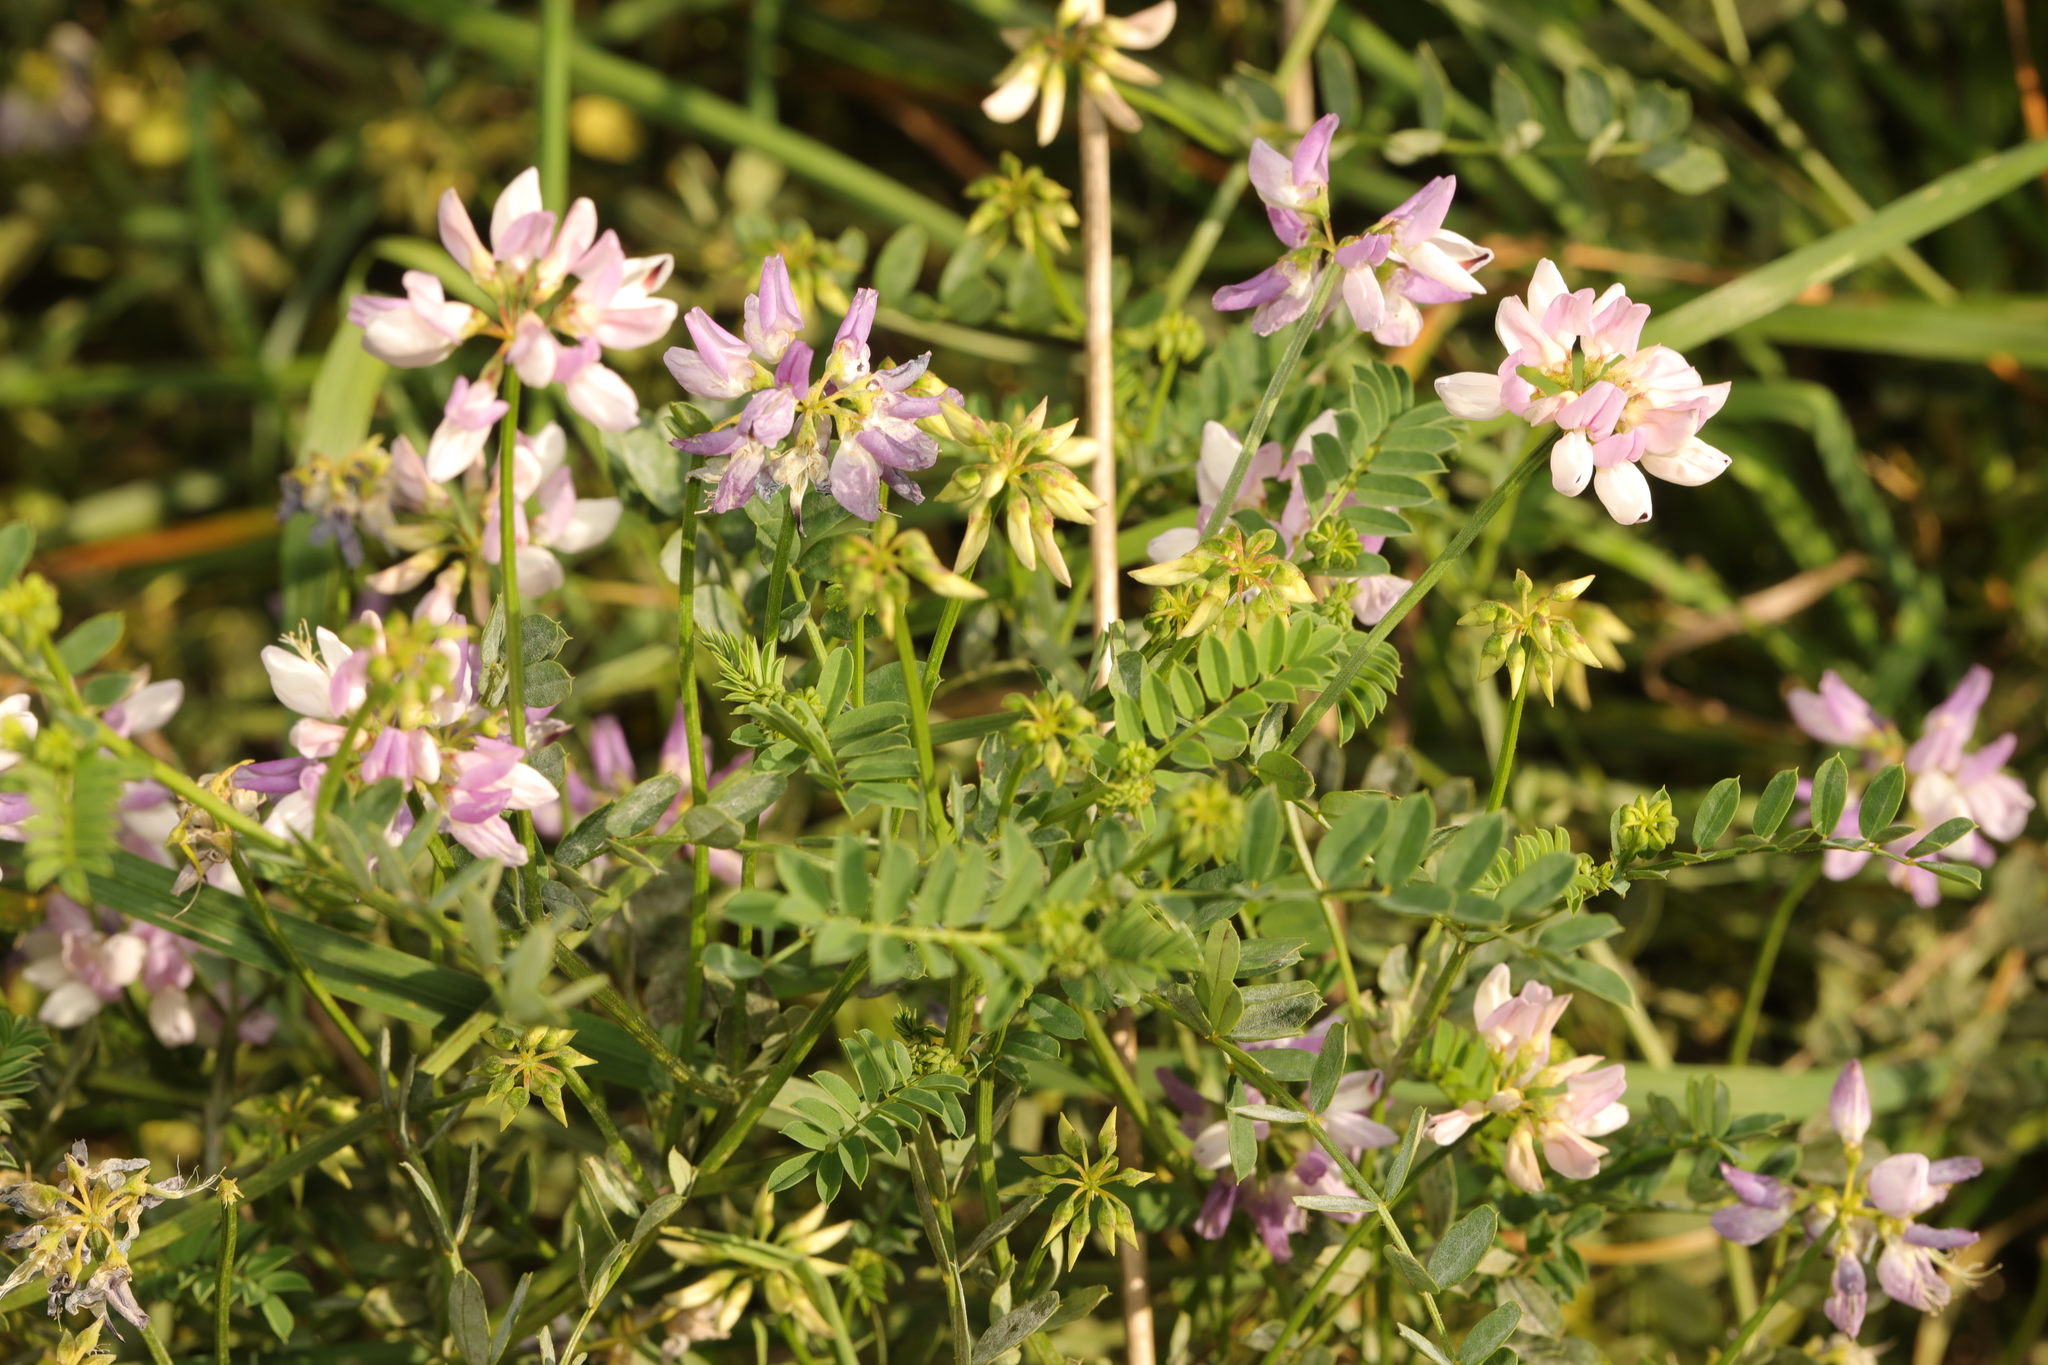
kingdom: Plantae
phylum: Tracheophyta
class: Magnoliopsida
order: Fabales
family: Fabaceae
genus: Coronilla
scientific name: Coronilla varia
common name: Crownvetch
